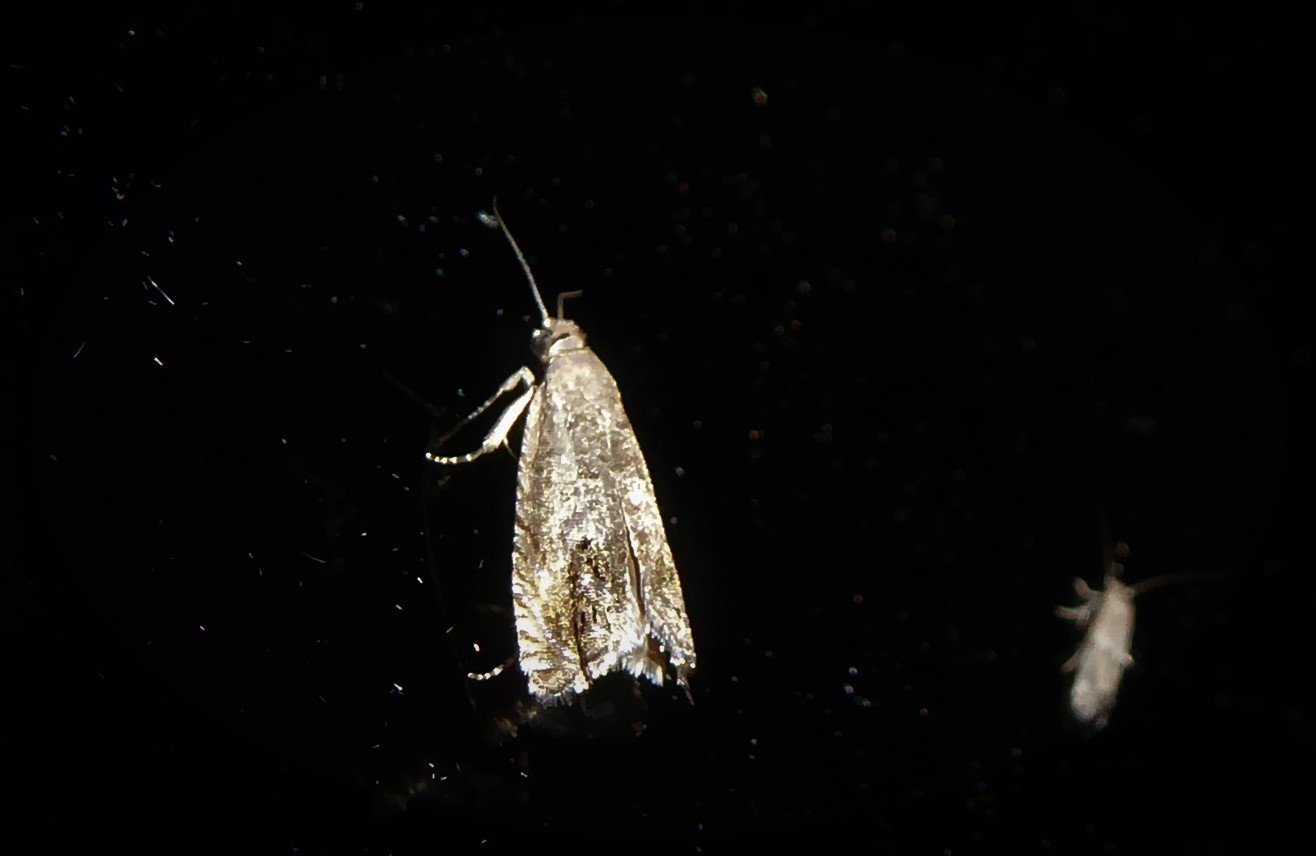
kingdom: Animalia
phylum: Arthropoda
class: Insecta
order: Lepidoptera
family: Tortricidae
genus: Cydia
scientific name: Cydia succedana
